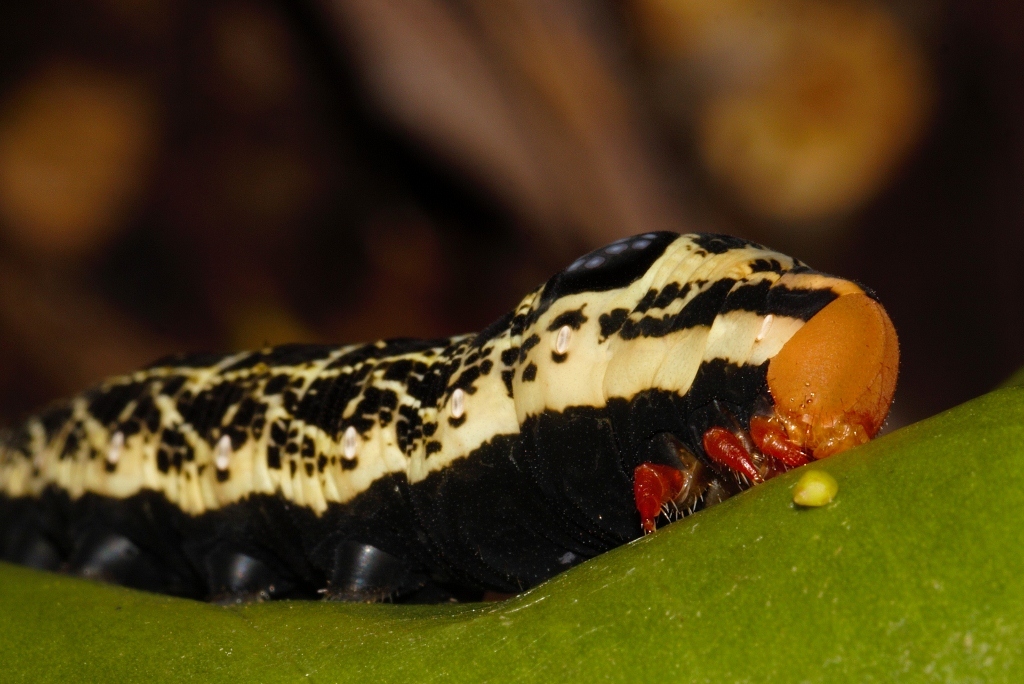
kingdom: Animalia
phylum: Arthropoda
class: Insecta
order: Lepidoptera
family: Sphingidae
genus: Hippotion
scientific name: Hippotion osiris
